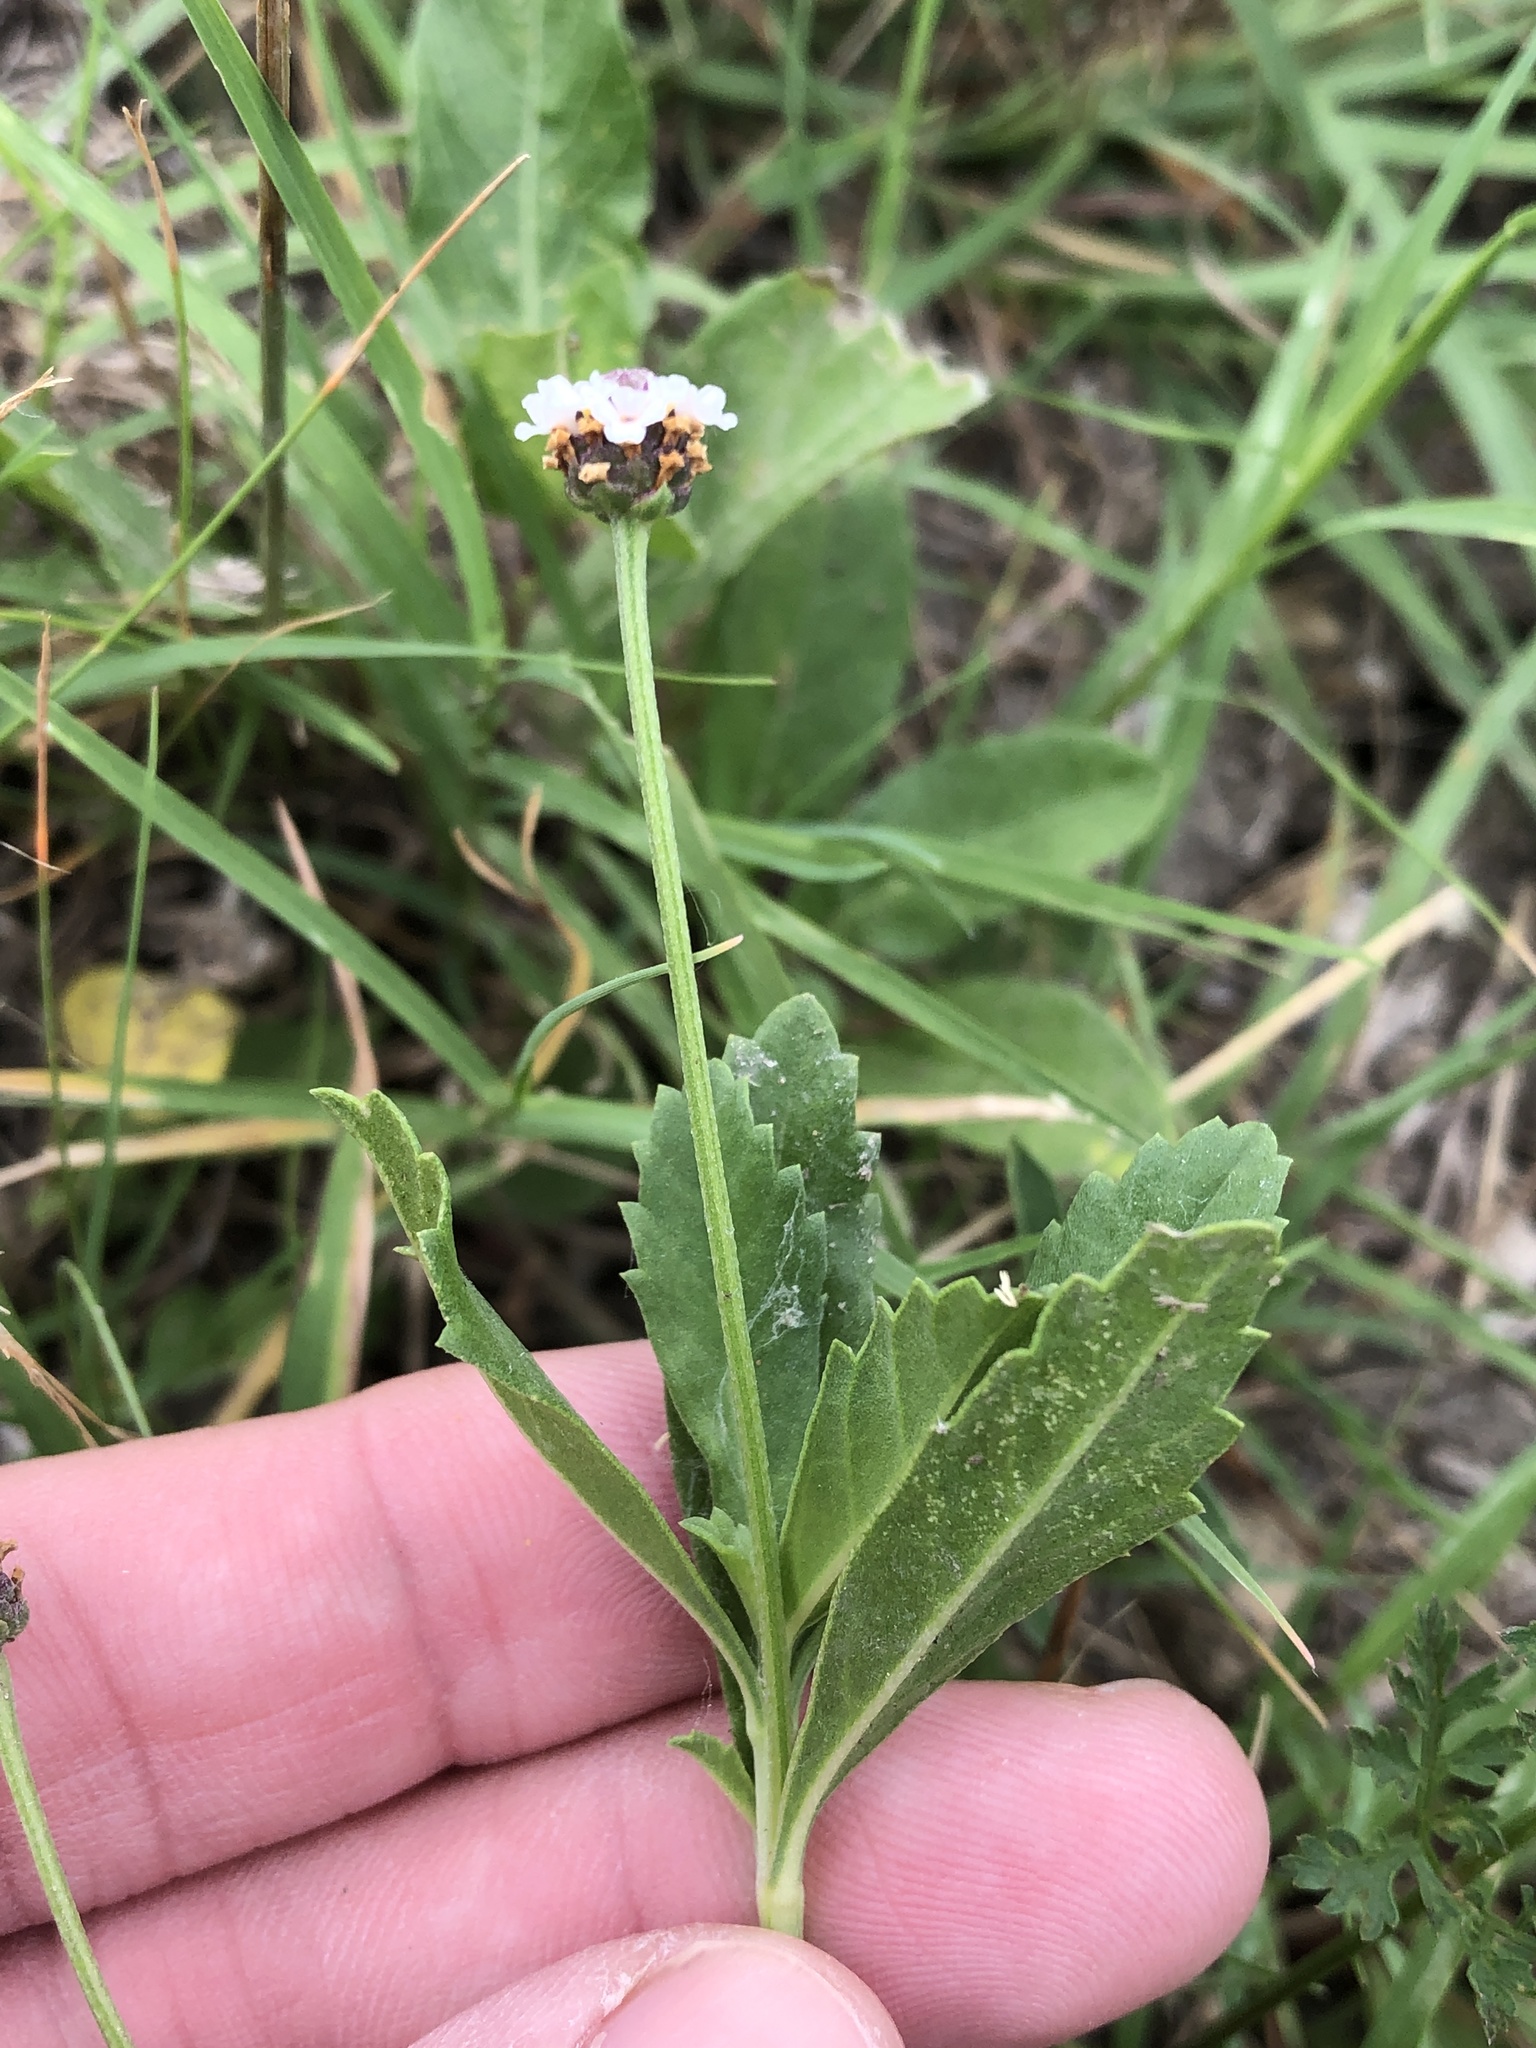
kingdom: Plantae
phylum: Tracheophyta
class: Magnoliopsida
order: Lamiales
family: Verbenaceae
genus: Phyla
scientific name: Phyla nodiflora
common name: Frogfruit
